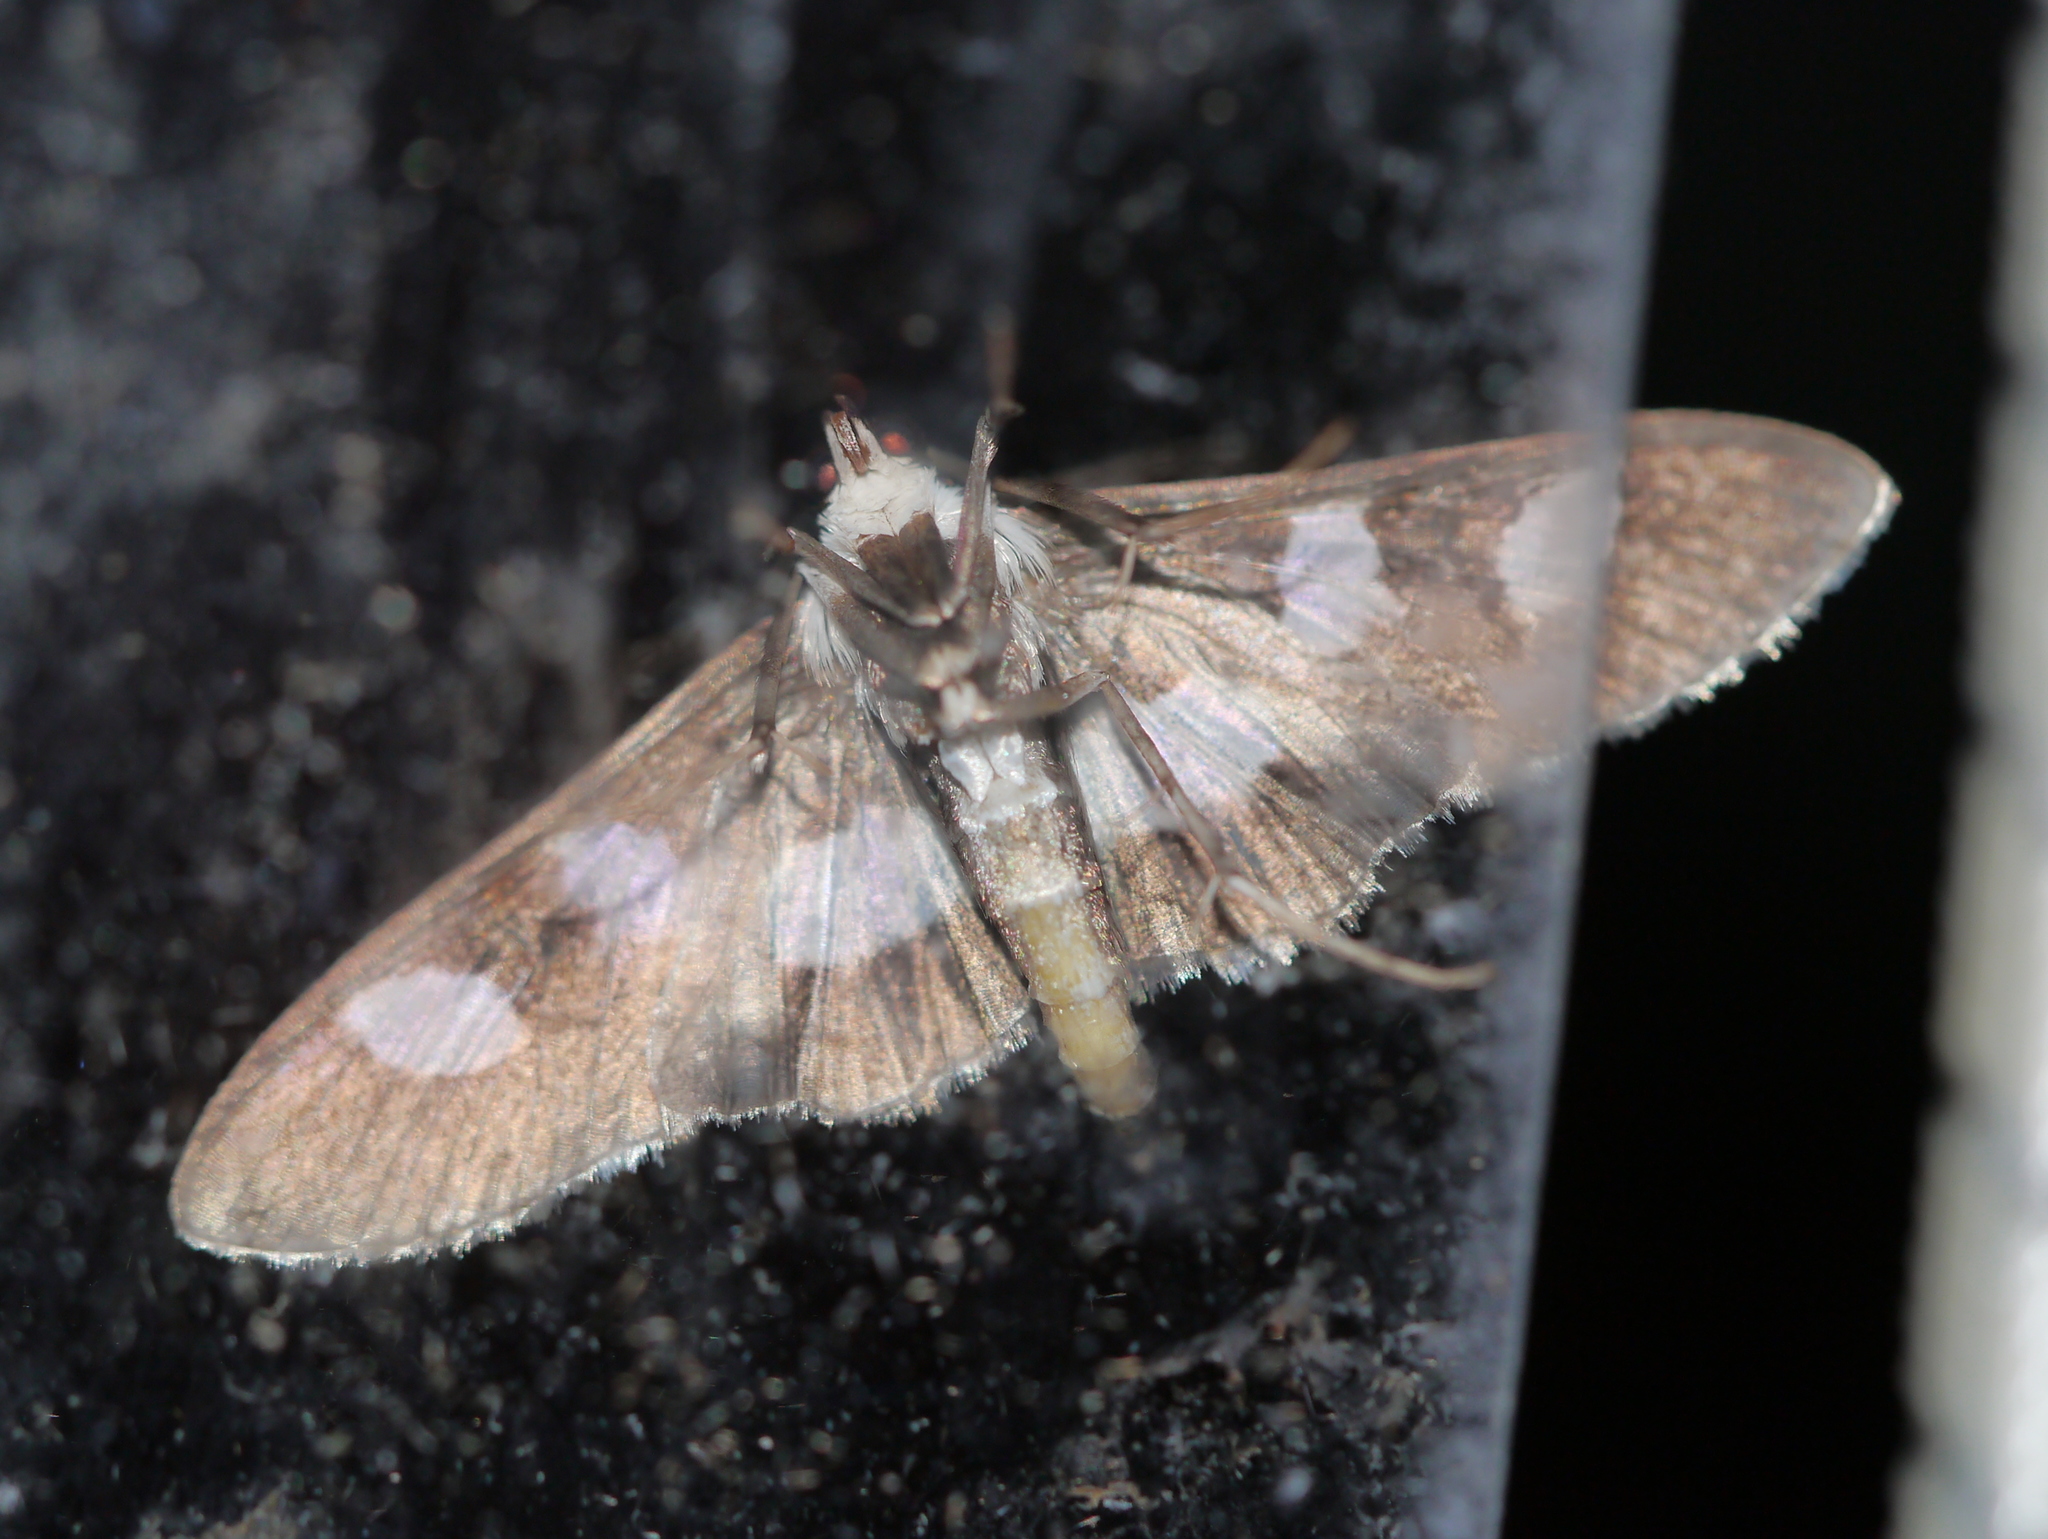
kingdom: Animalia
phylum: Arthropoda
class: Insecta
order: Lepidoptera
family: Crambidae
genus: Desmia
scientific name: Desmia funeralis
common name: Grape leaf folder moth
